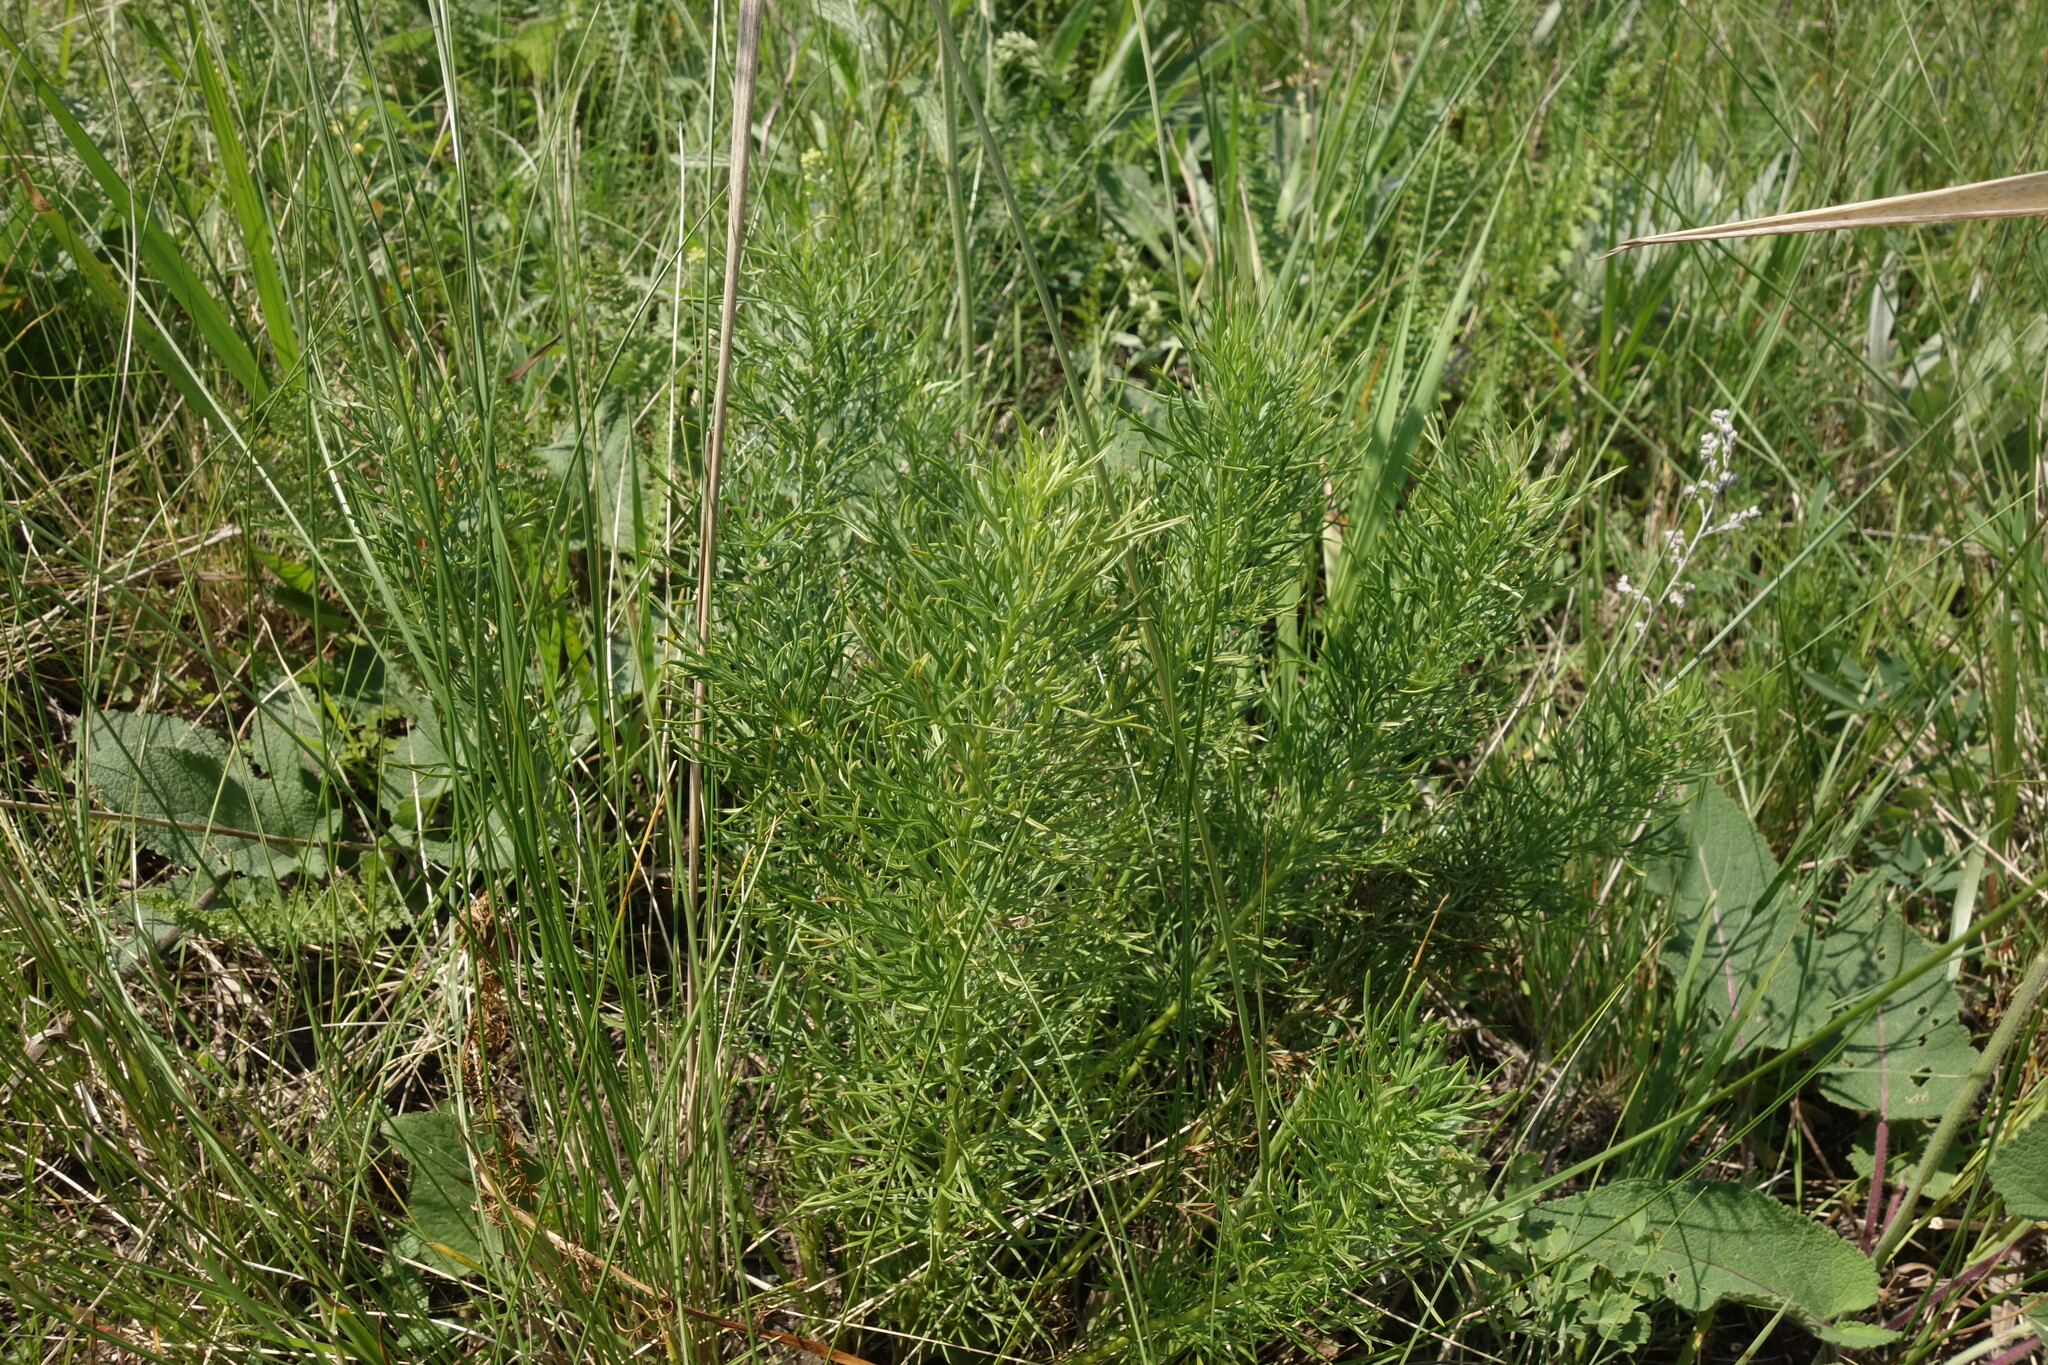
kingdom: Plantae
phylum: Tracheophyta
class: Magnoliopsida
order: Ranunculales
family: Ranunculaceae
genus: Adonis
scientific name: Adonis vernalis
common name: Yellow pheasants-eye
